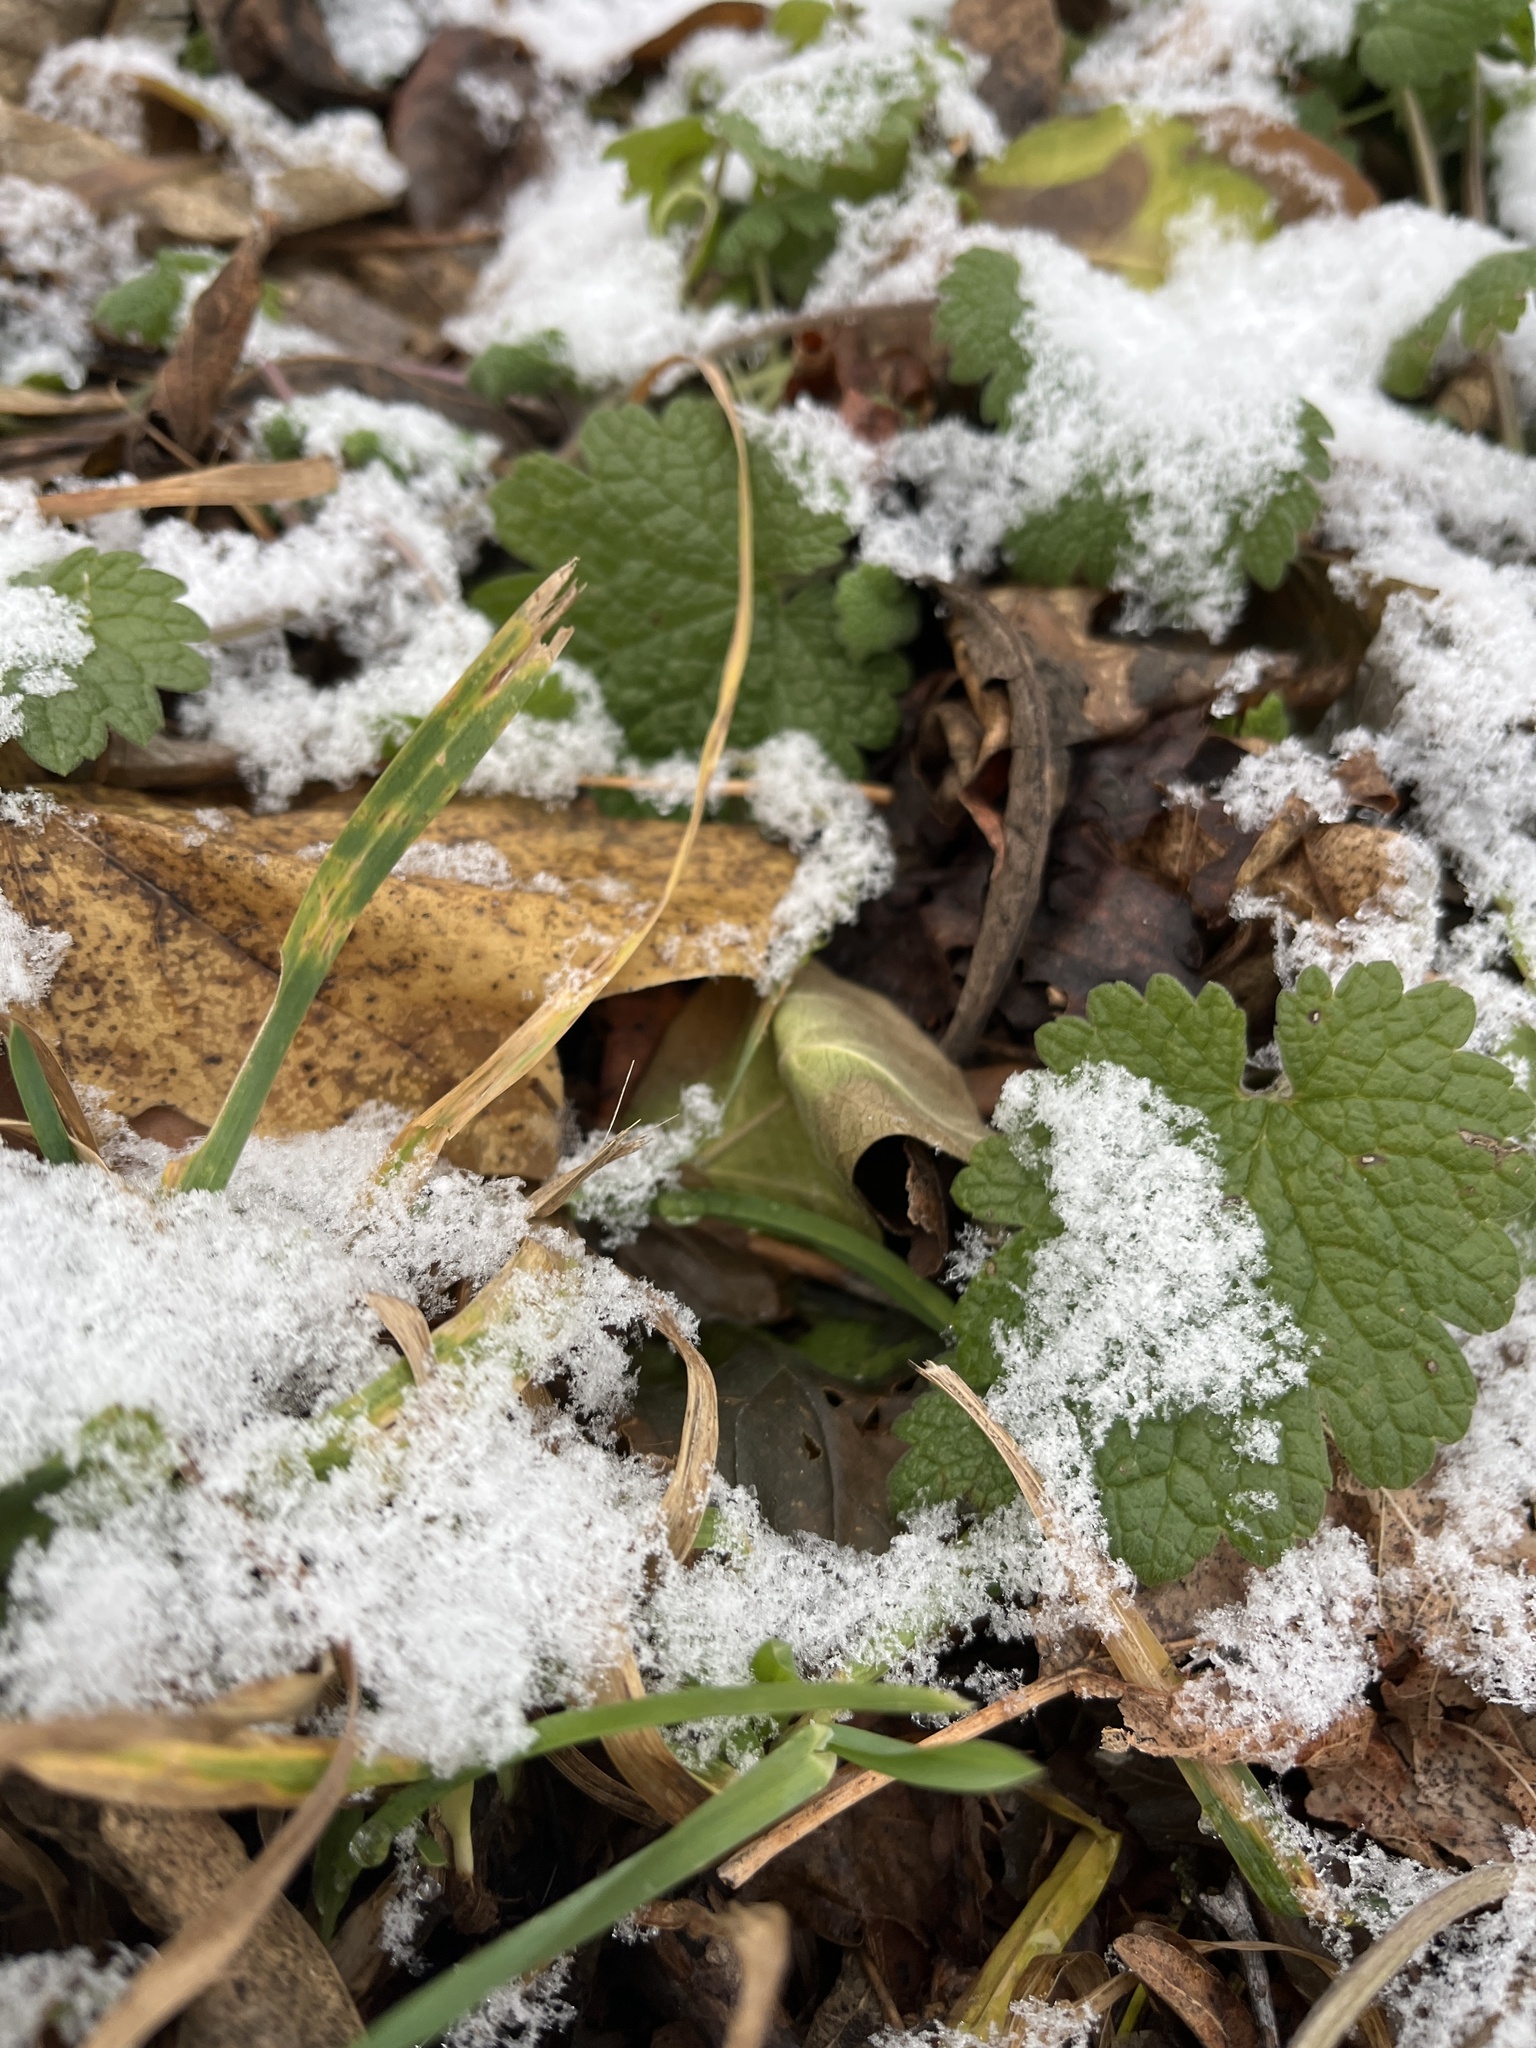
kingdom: Plantae
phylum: Tracheophyta
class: Magnoliopsida
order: Lamiales
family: Lamiaceae
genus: Leonurus
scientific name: Leonurus cardiaca
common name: Motherwort
